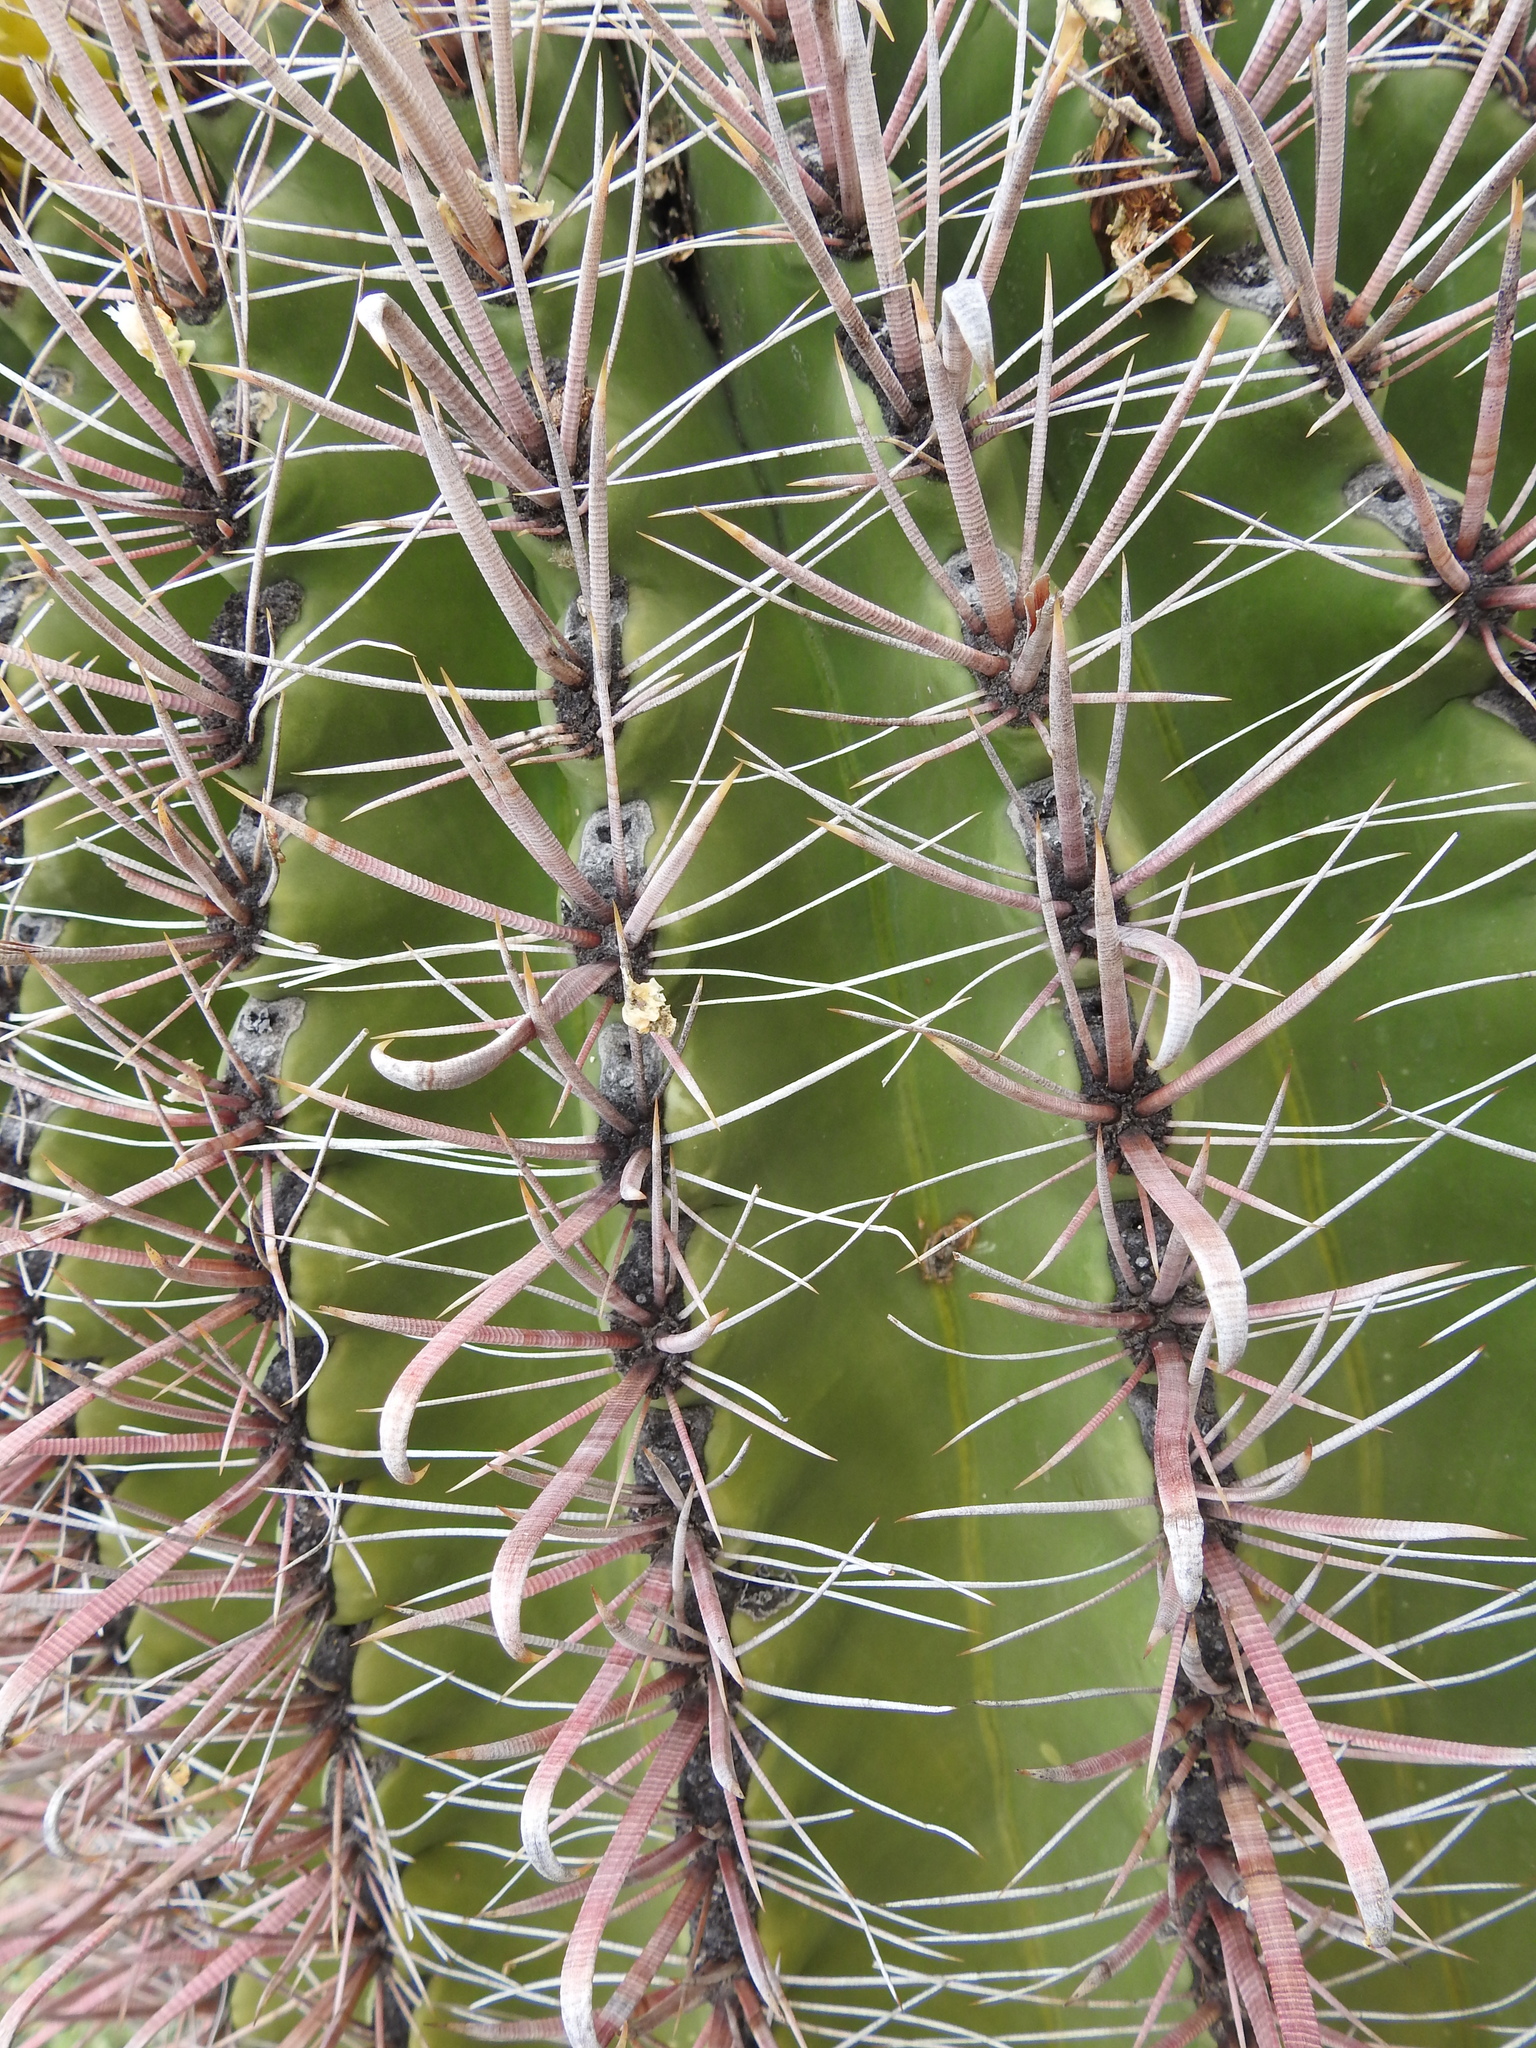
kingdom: Plantae
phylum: Tracheophyta
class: Magnoliopsida
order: Caryophyllales
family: Cactaceae
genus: Ferocactus
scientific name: Ferocactus wislizeni
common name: Candy barrel cactus
